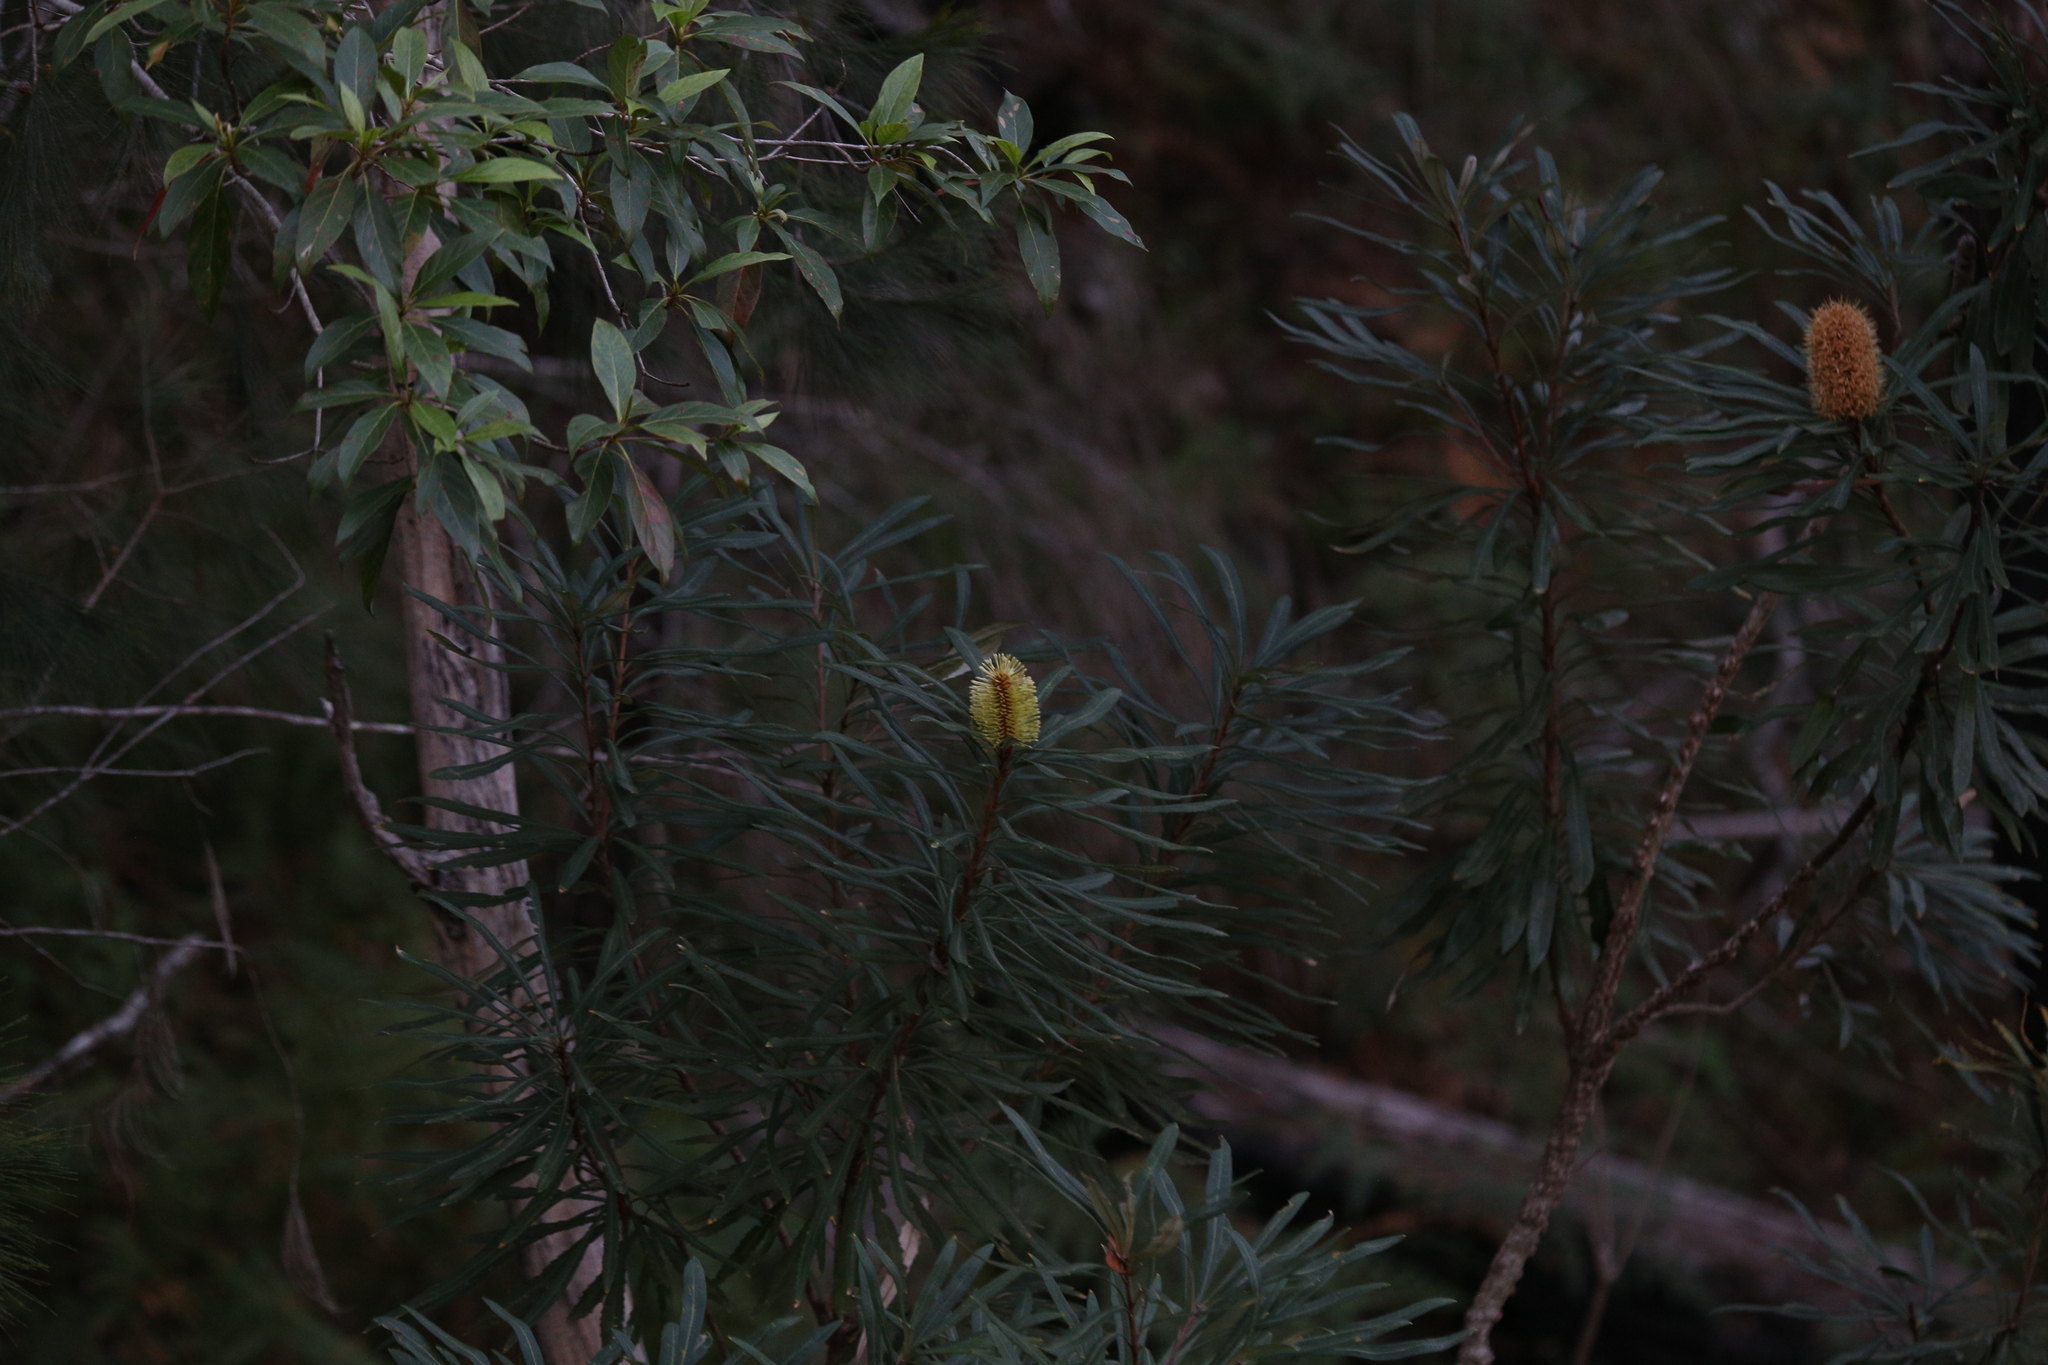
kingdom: Plantae
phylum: Tracheophyta
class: Magnoliopsida
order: Proteales
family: Proteaceae
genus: Banksia
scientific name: Banksia aquilonia
